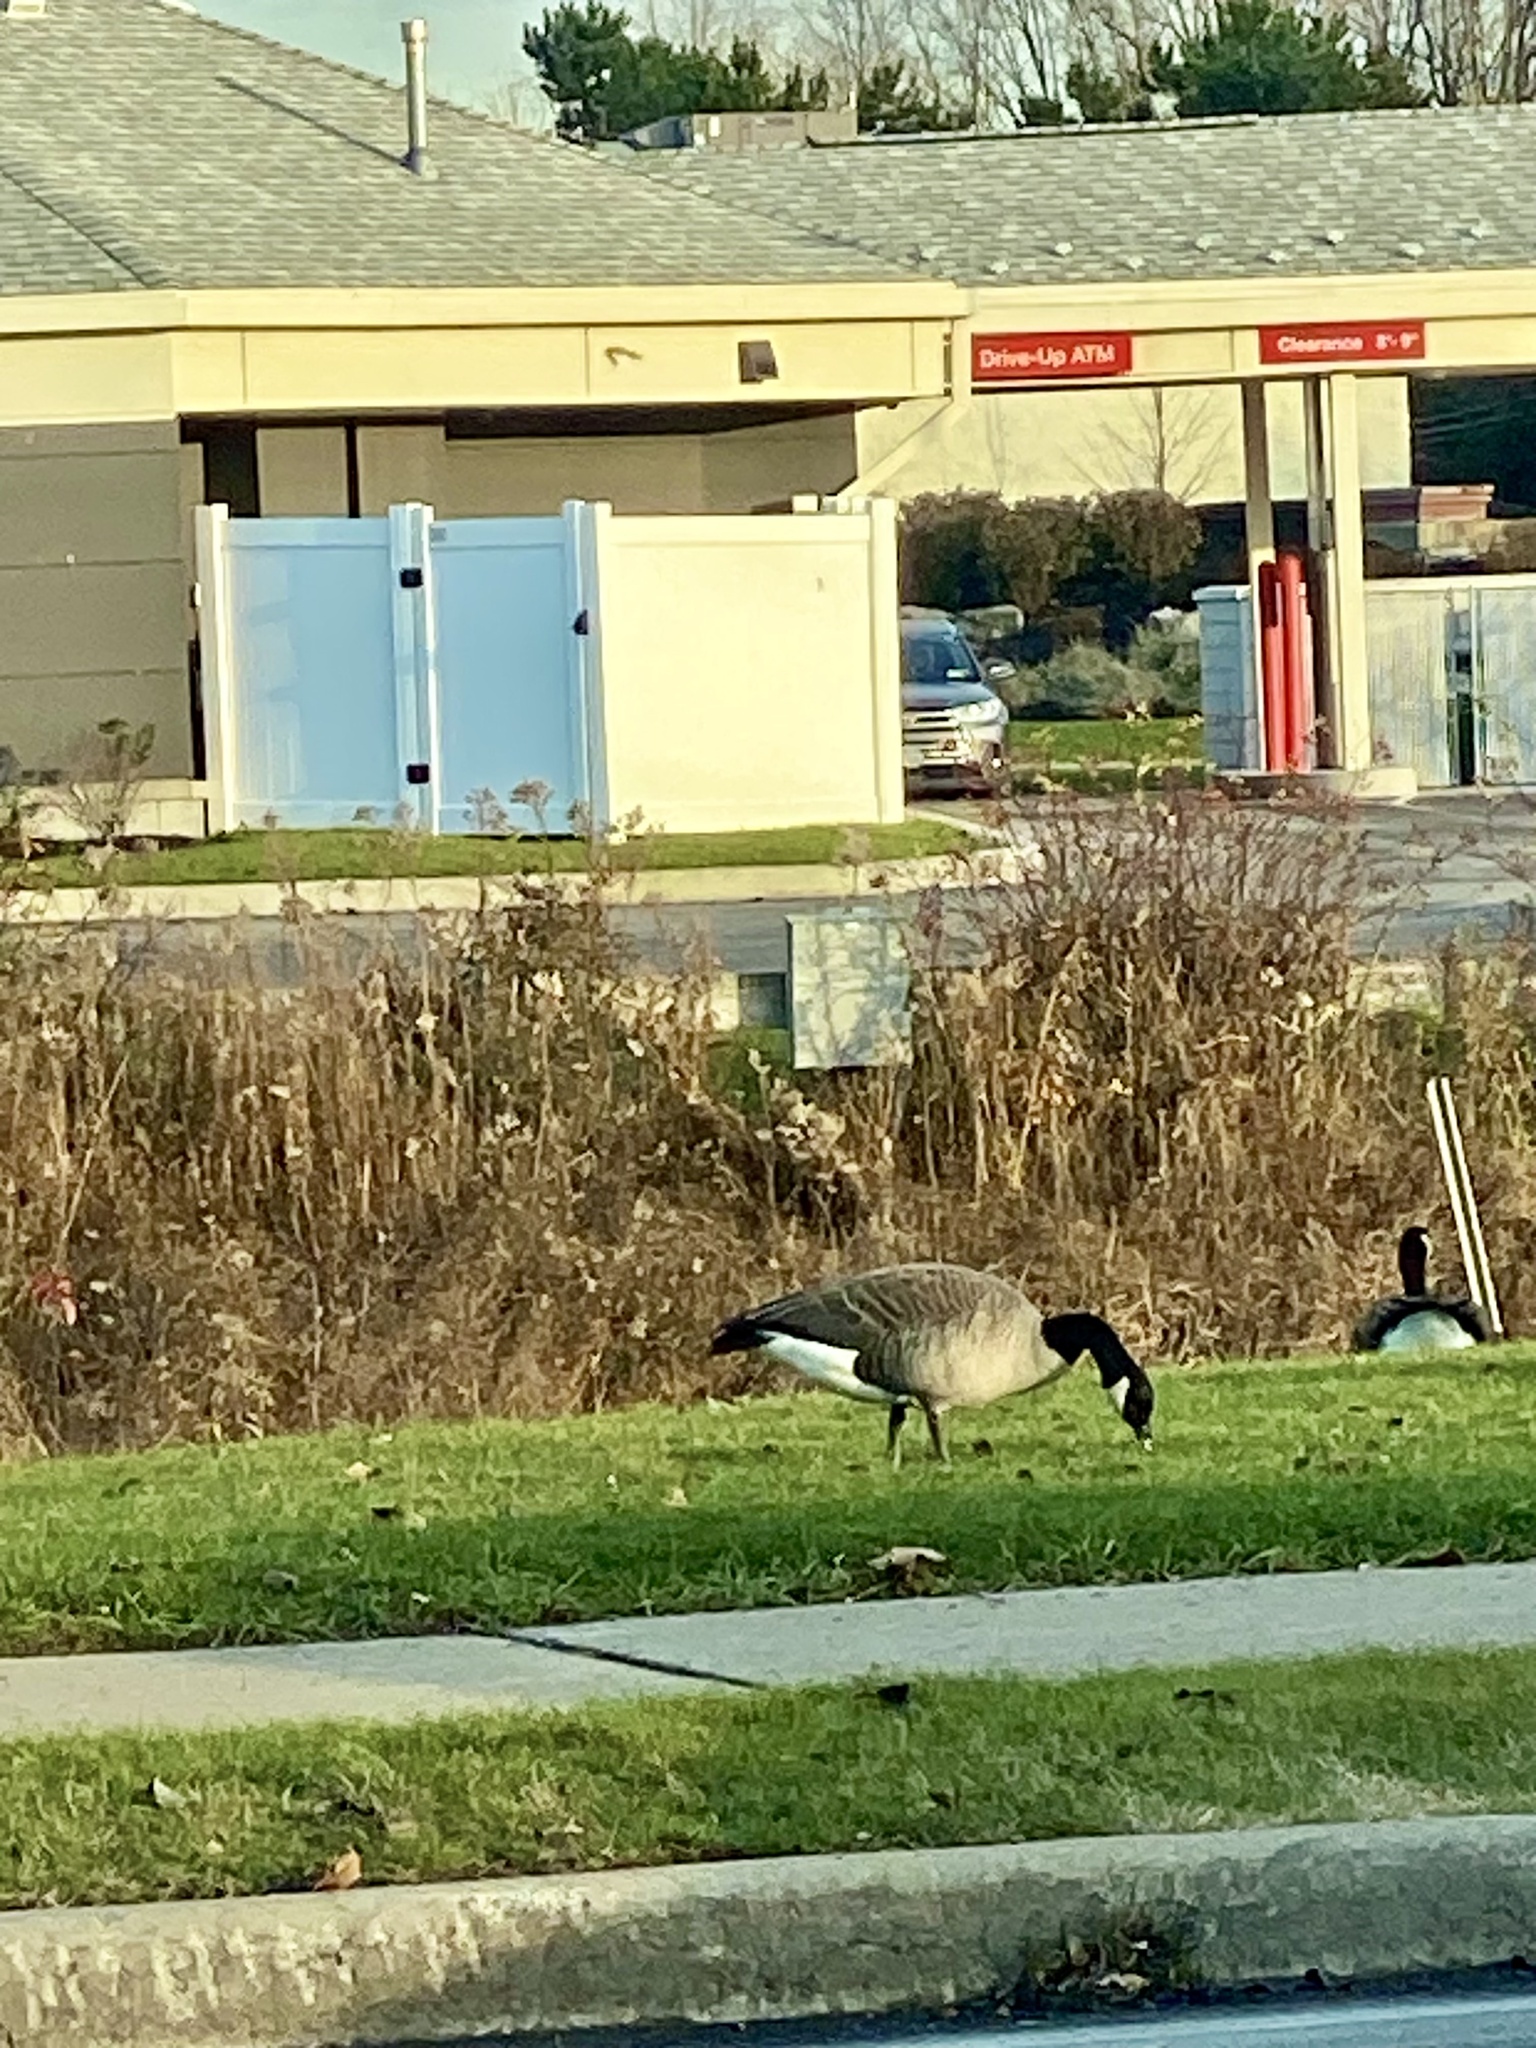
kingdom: Animalia
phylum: Chordata
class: Aves
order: Anseriformes
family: Anatidae
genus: Branta
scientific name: Branta canadensis
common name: Canada goose
